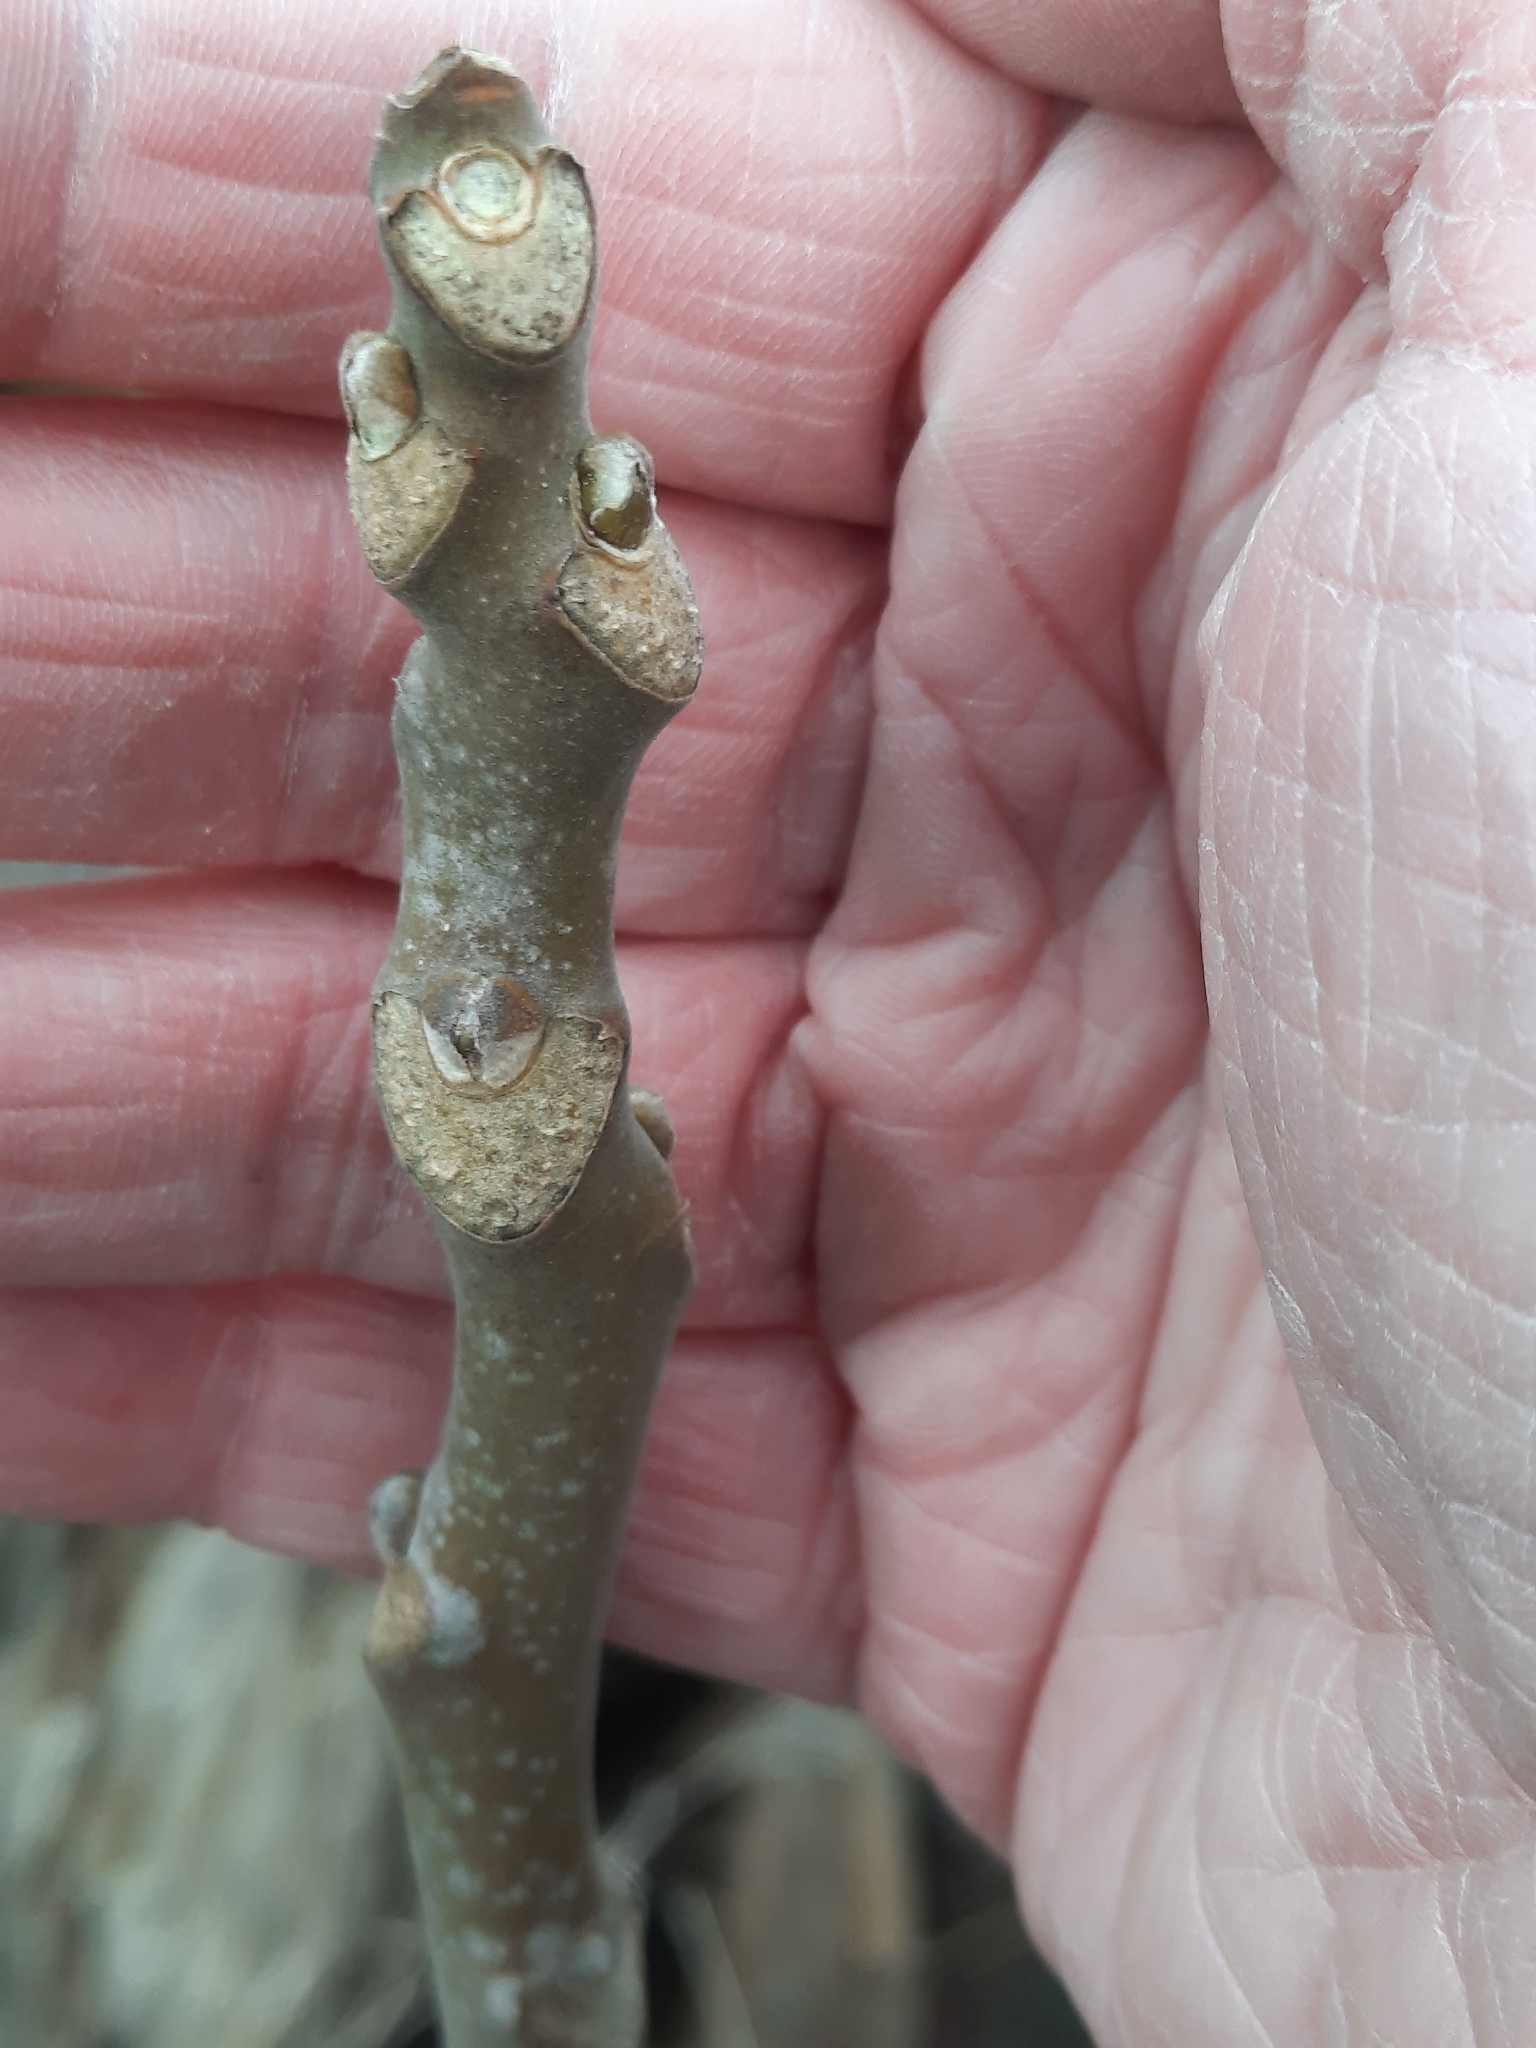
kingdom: Plantae
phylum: Tracheophyta
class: Magnoliopsida
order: Sapindales
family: Simaroubaceae
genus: Ailanthus
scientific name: Ailanthus altissima
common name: Tree-of-heaven
